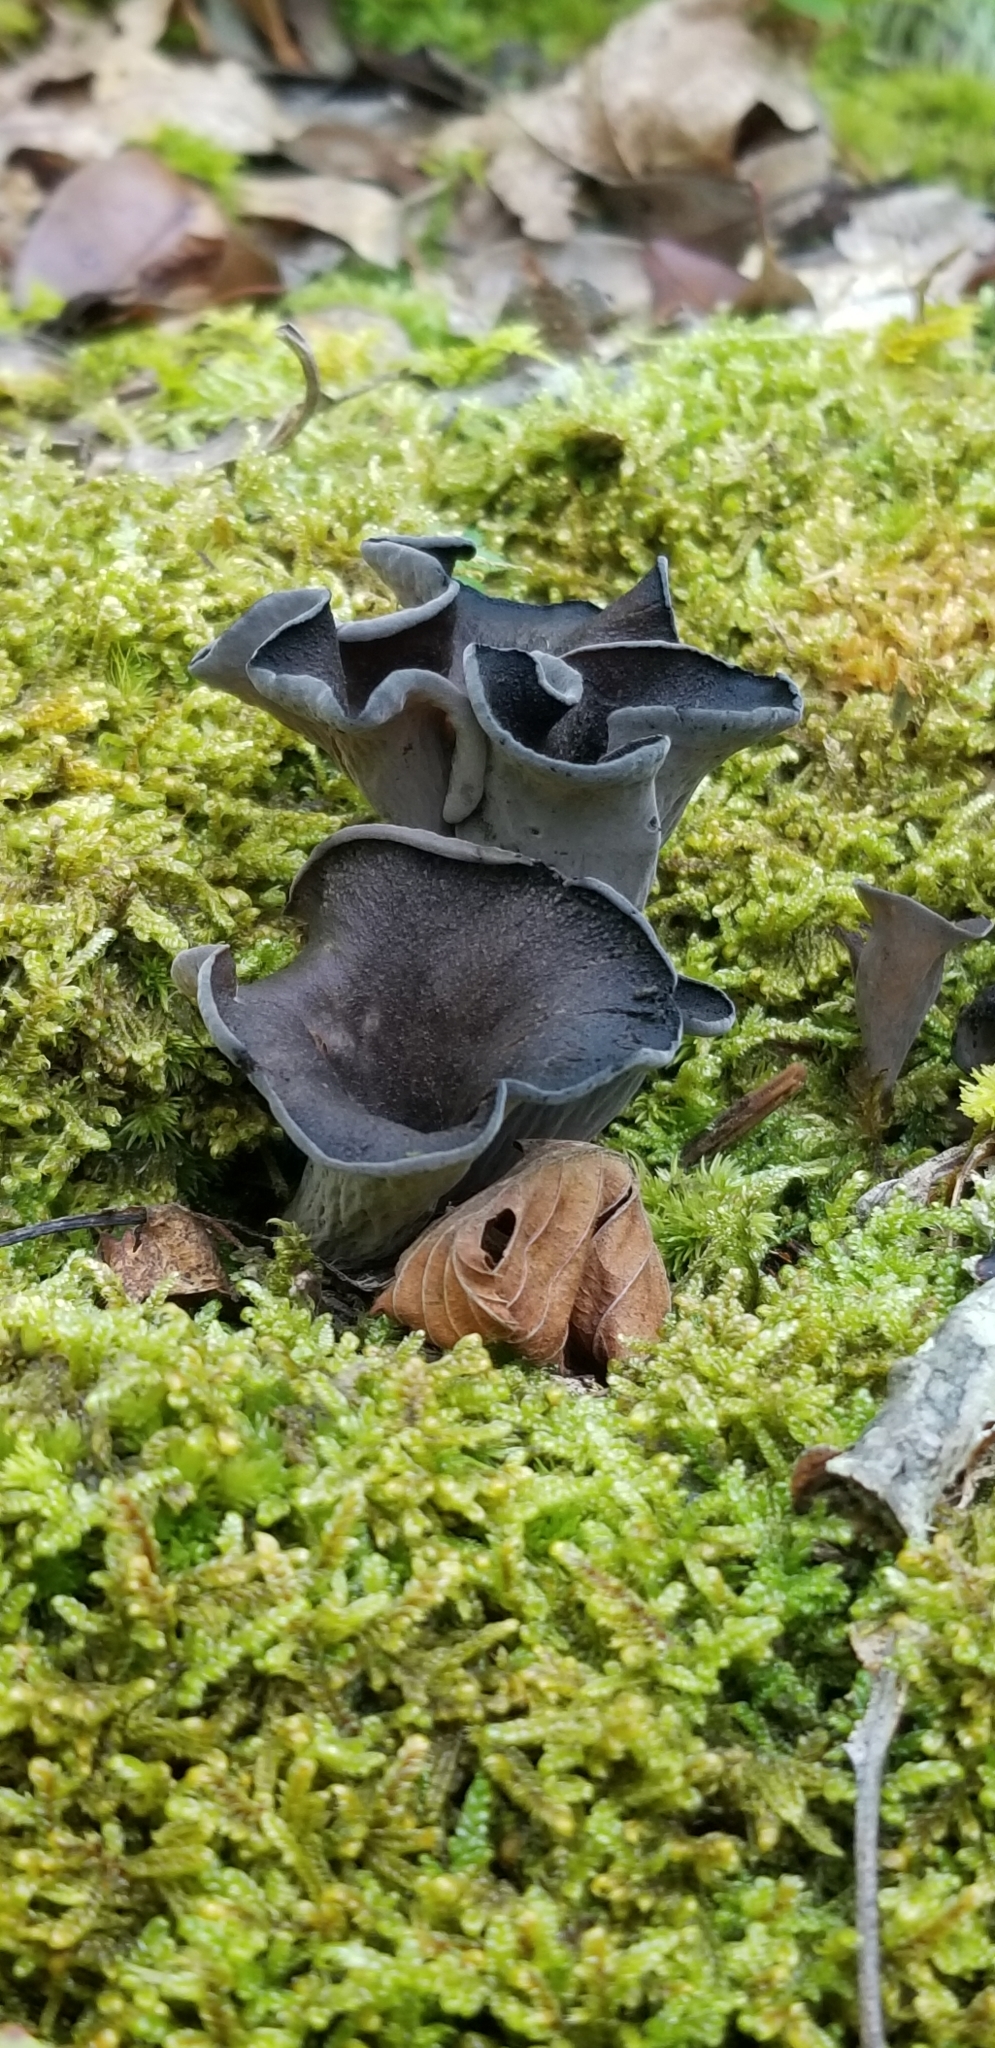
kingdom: Fungi
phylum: Basidiomycota
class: Agaricomycetes
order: Cantharellales
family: Hydnaceae
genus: Craterellus
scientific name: Craterellus cornucopioides
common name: Horn of plenty
